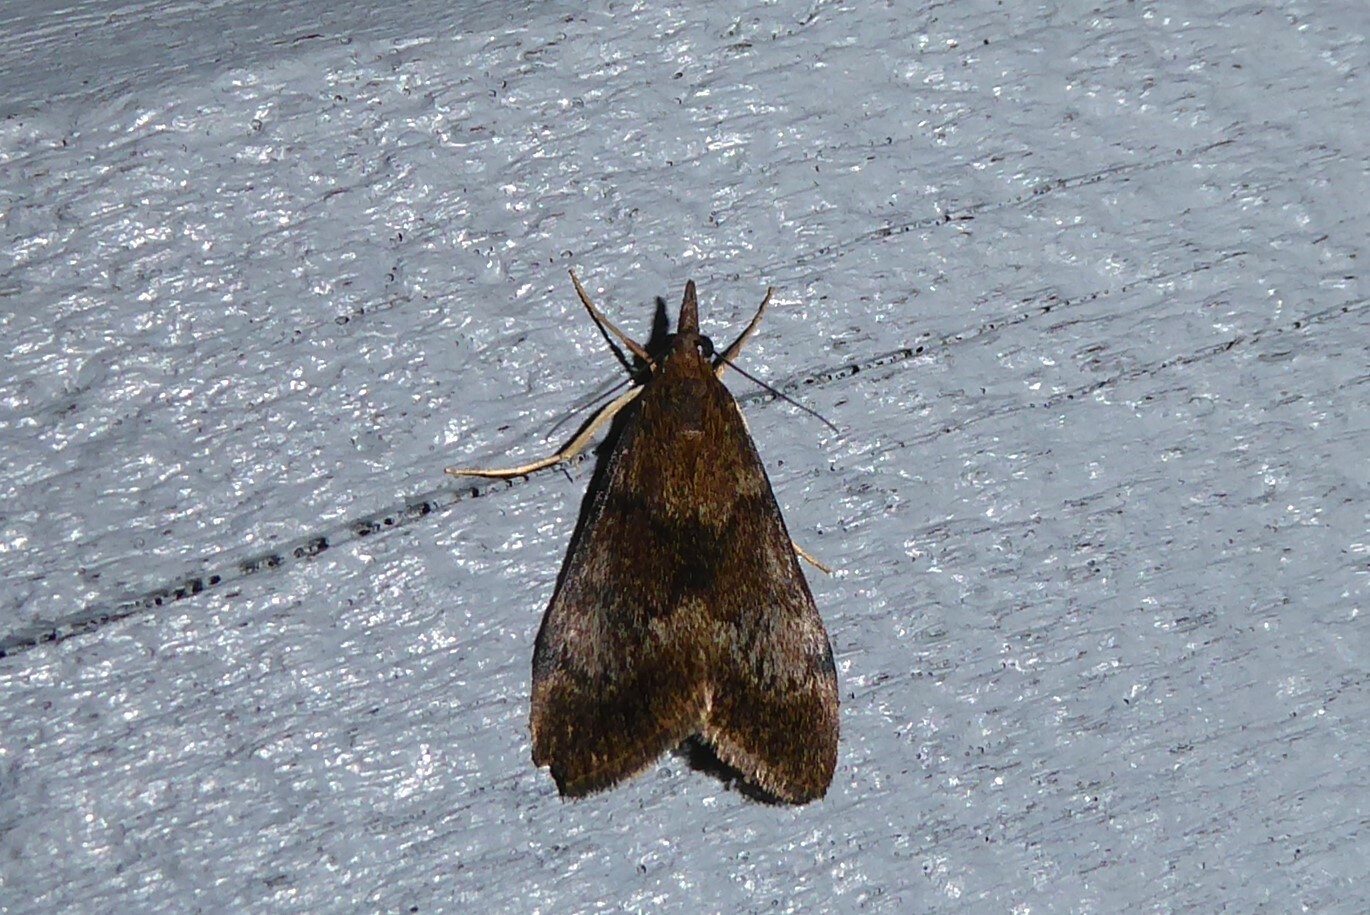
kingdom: Animalia
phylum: Arthropoda
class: Insecta
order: Lepidoptera
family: Crambidae
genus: Uresiphita
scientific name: Uresiphita
